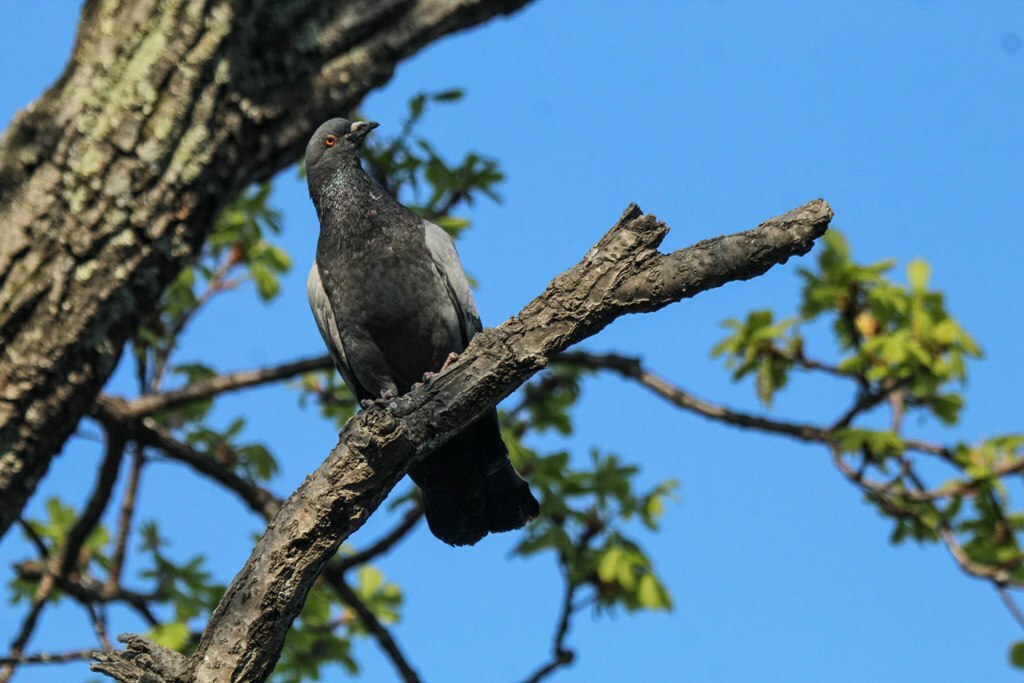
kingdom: Animalia
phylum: Chordata
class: Aves
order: Columbiformes
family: Columbidae
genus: Columba
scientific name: Columba livia
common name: Rock pigeon
